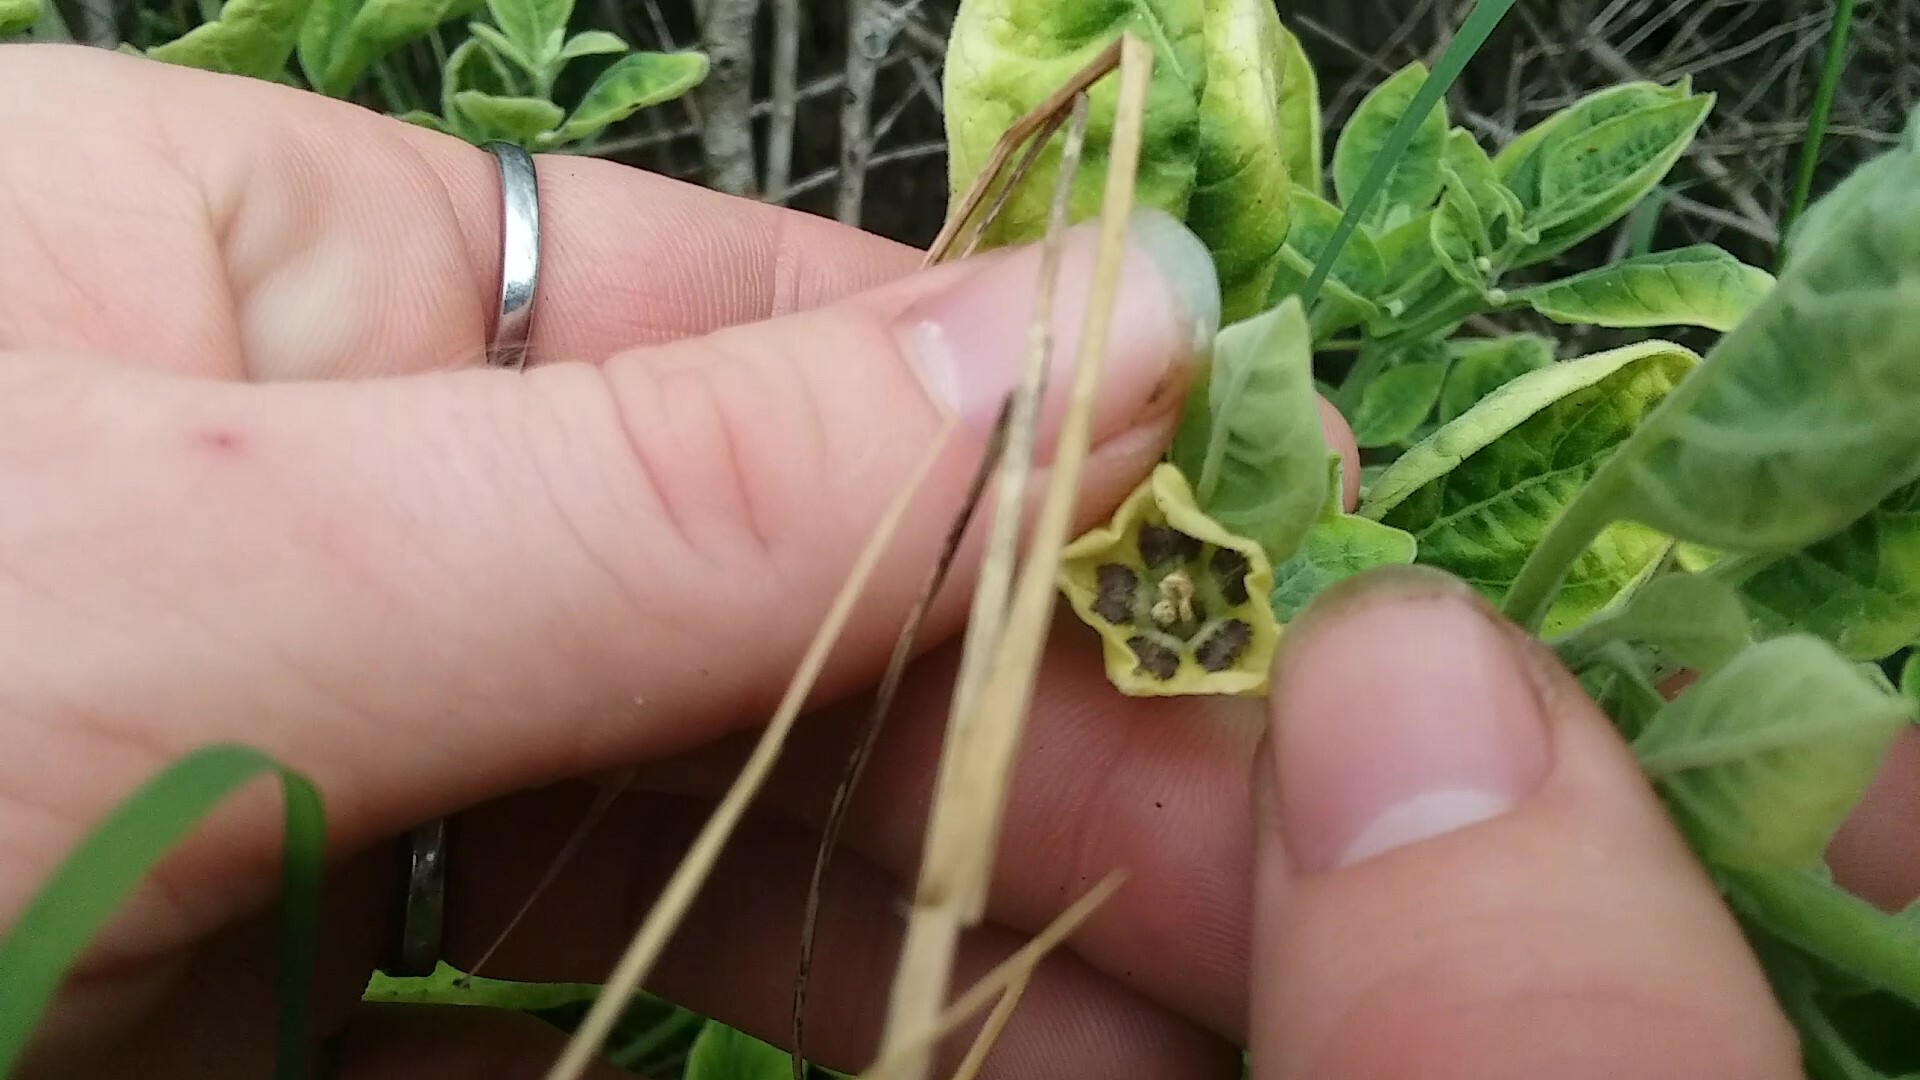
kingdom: Plantae
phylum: Tracheophyta
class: Magnoliopsida
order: Solanales
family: Solanaceae
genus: Physalis
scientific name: Physalis walteri
